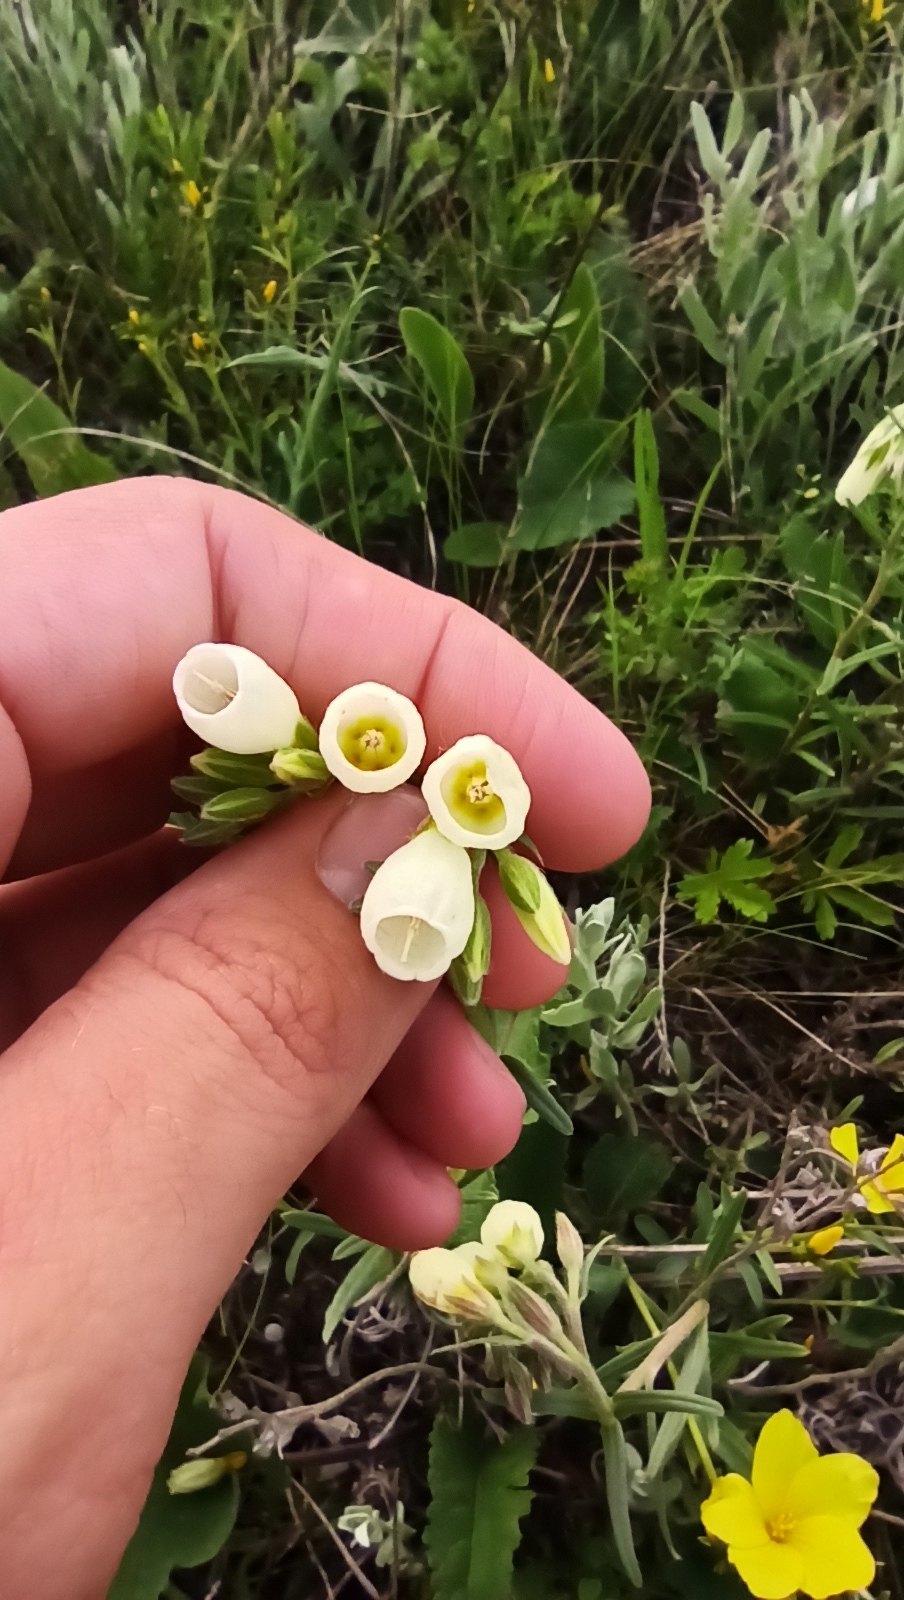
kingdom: Plantae
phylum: Tracheophyta
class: Magnoliopsida
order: Boraginales
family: Boraginaceae
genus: Onosma
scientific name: Onosma simplicissima
